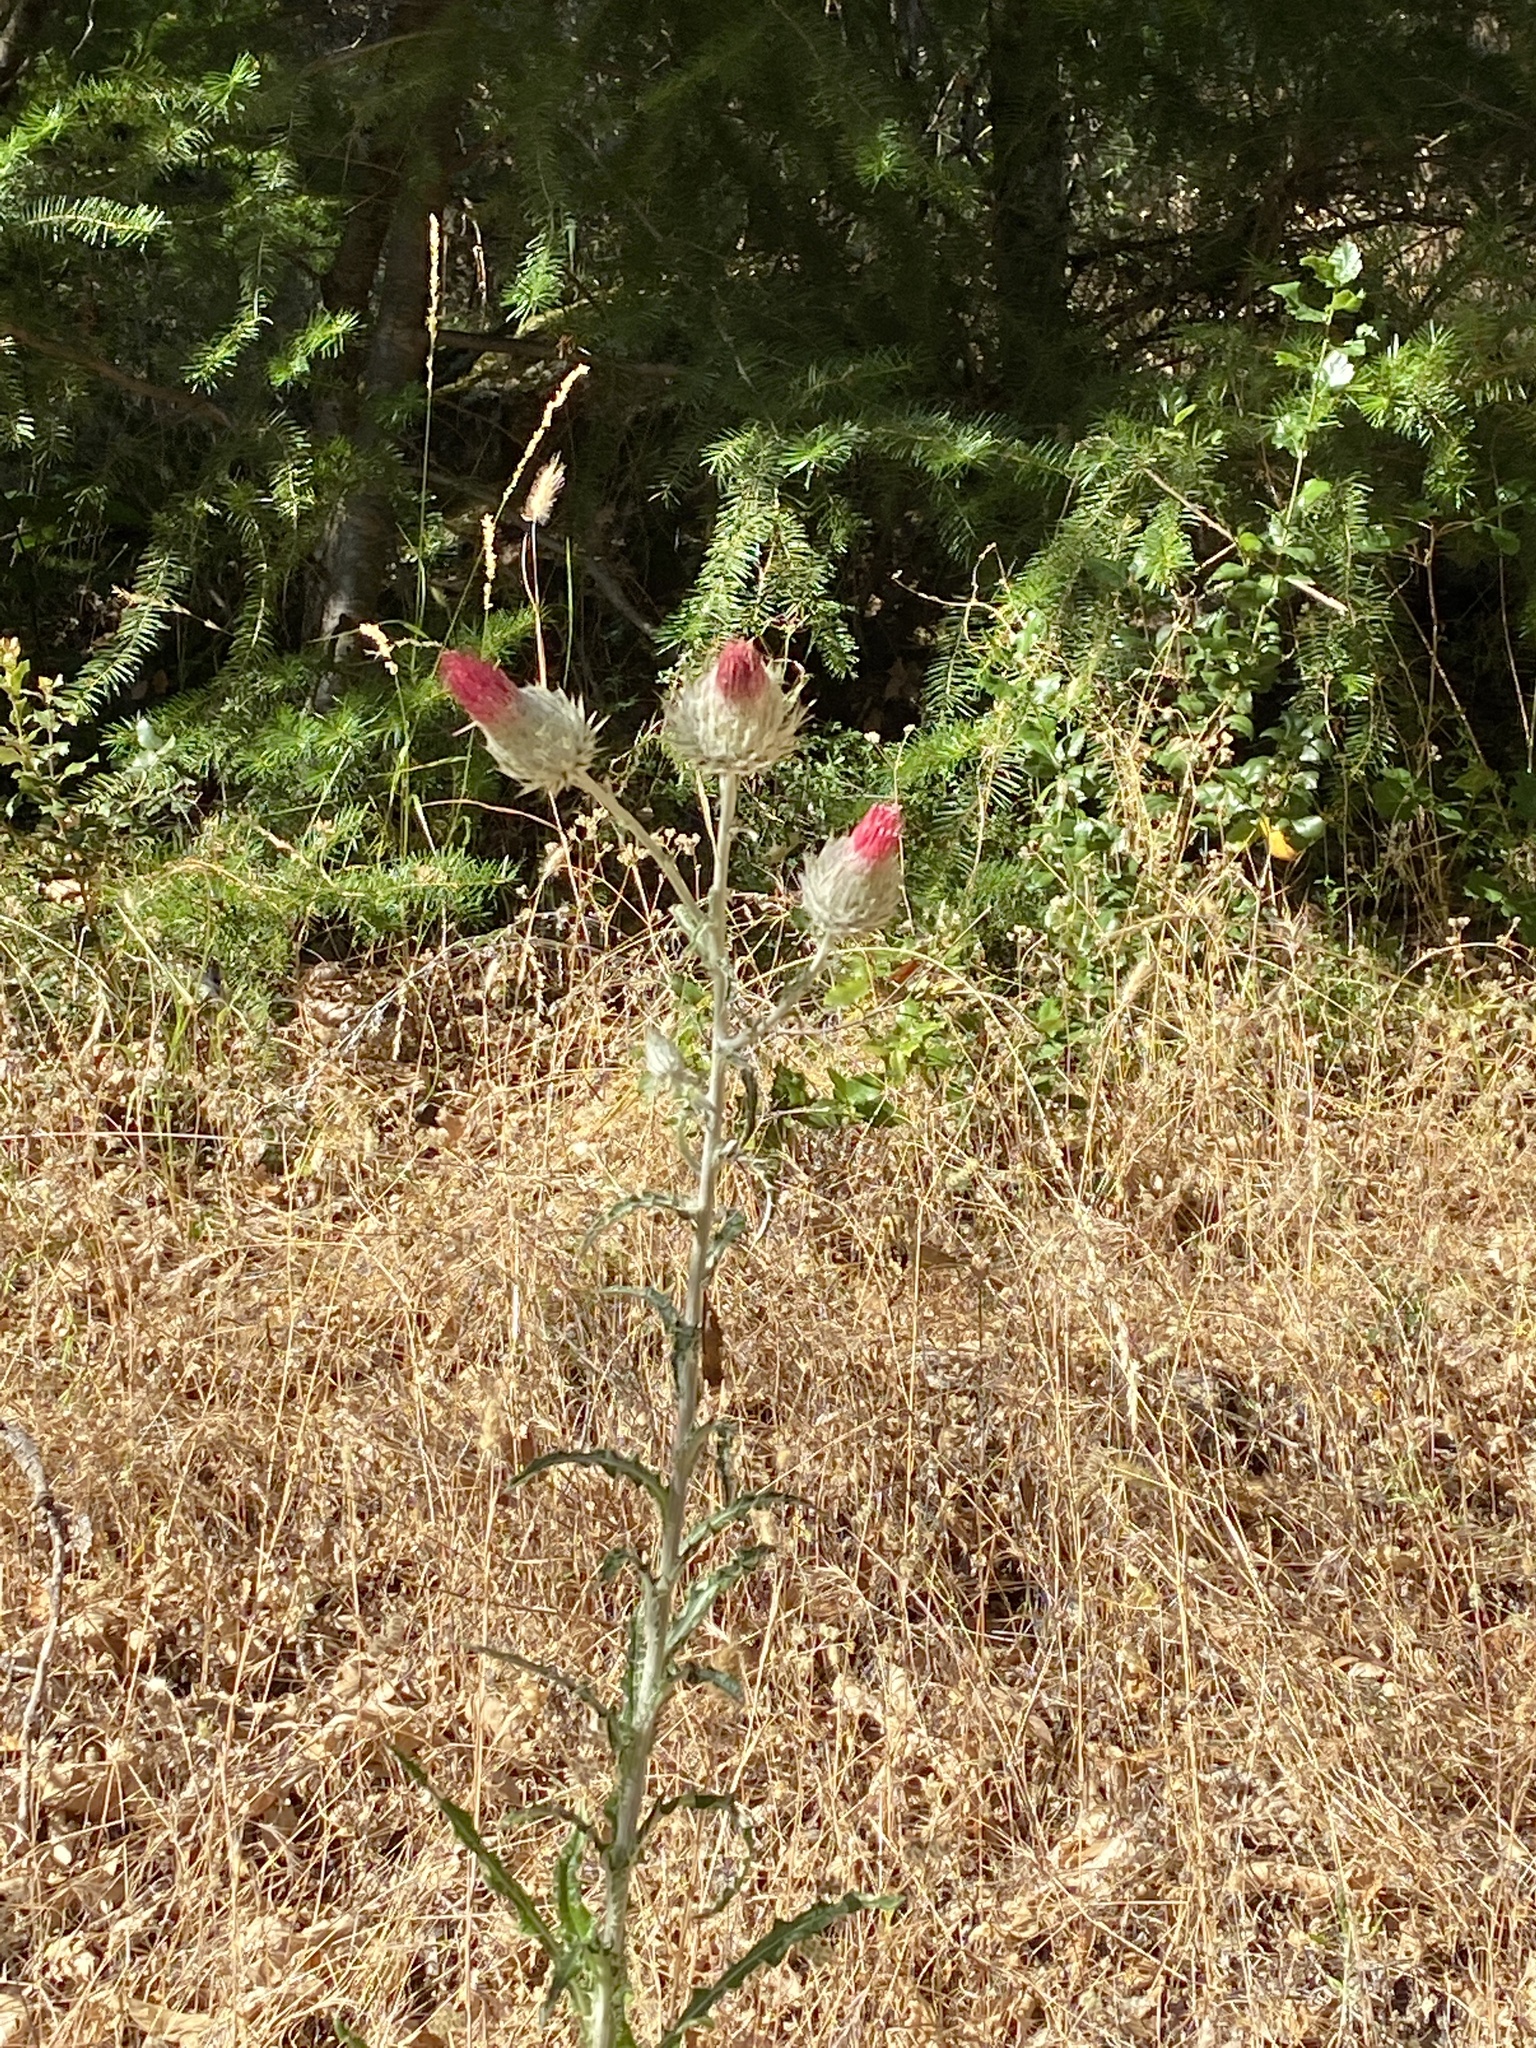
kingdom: Plantae
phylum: Tracheophyta
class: Magnoliopsida
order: Asterales
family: Asteraceae
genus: Cirsium
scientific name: Cirsium occidentale
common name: Western thistle
